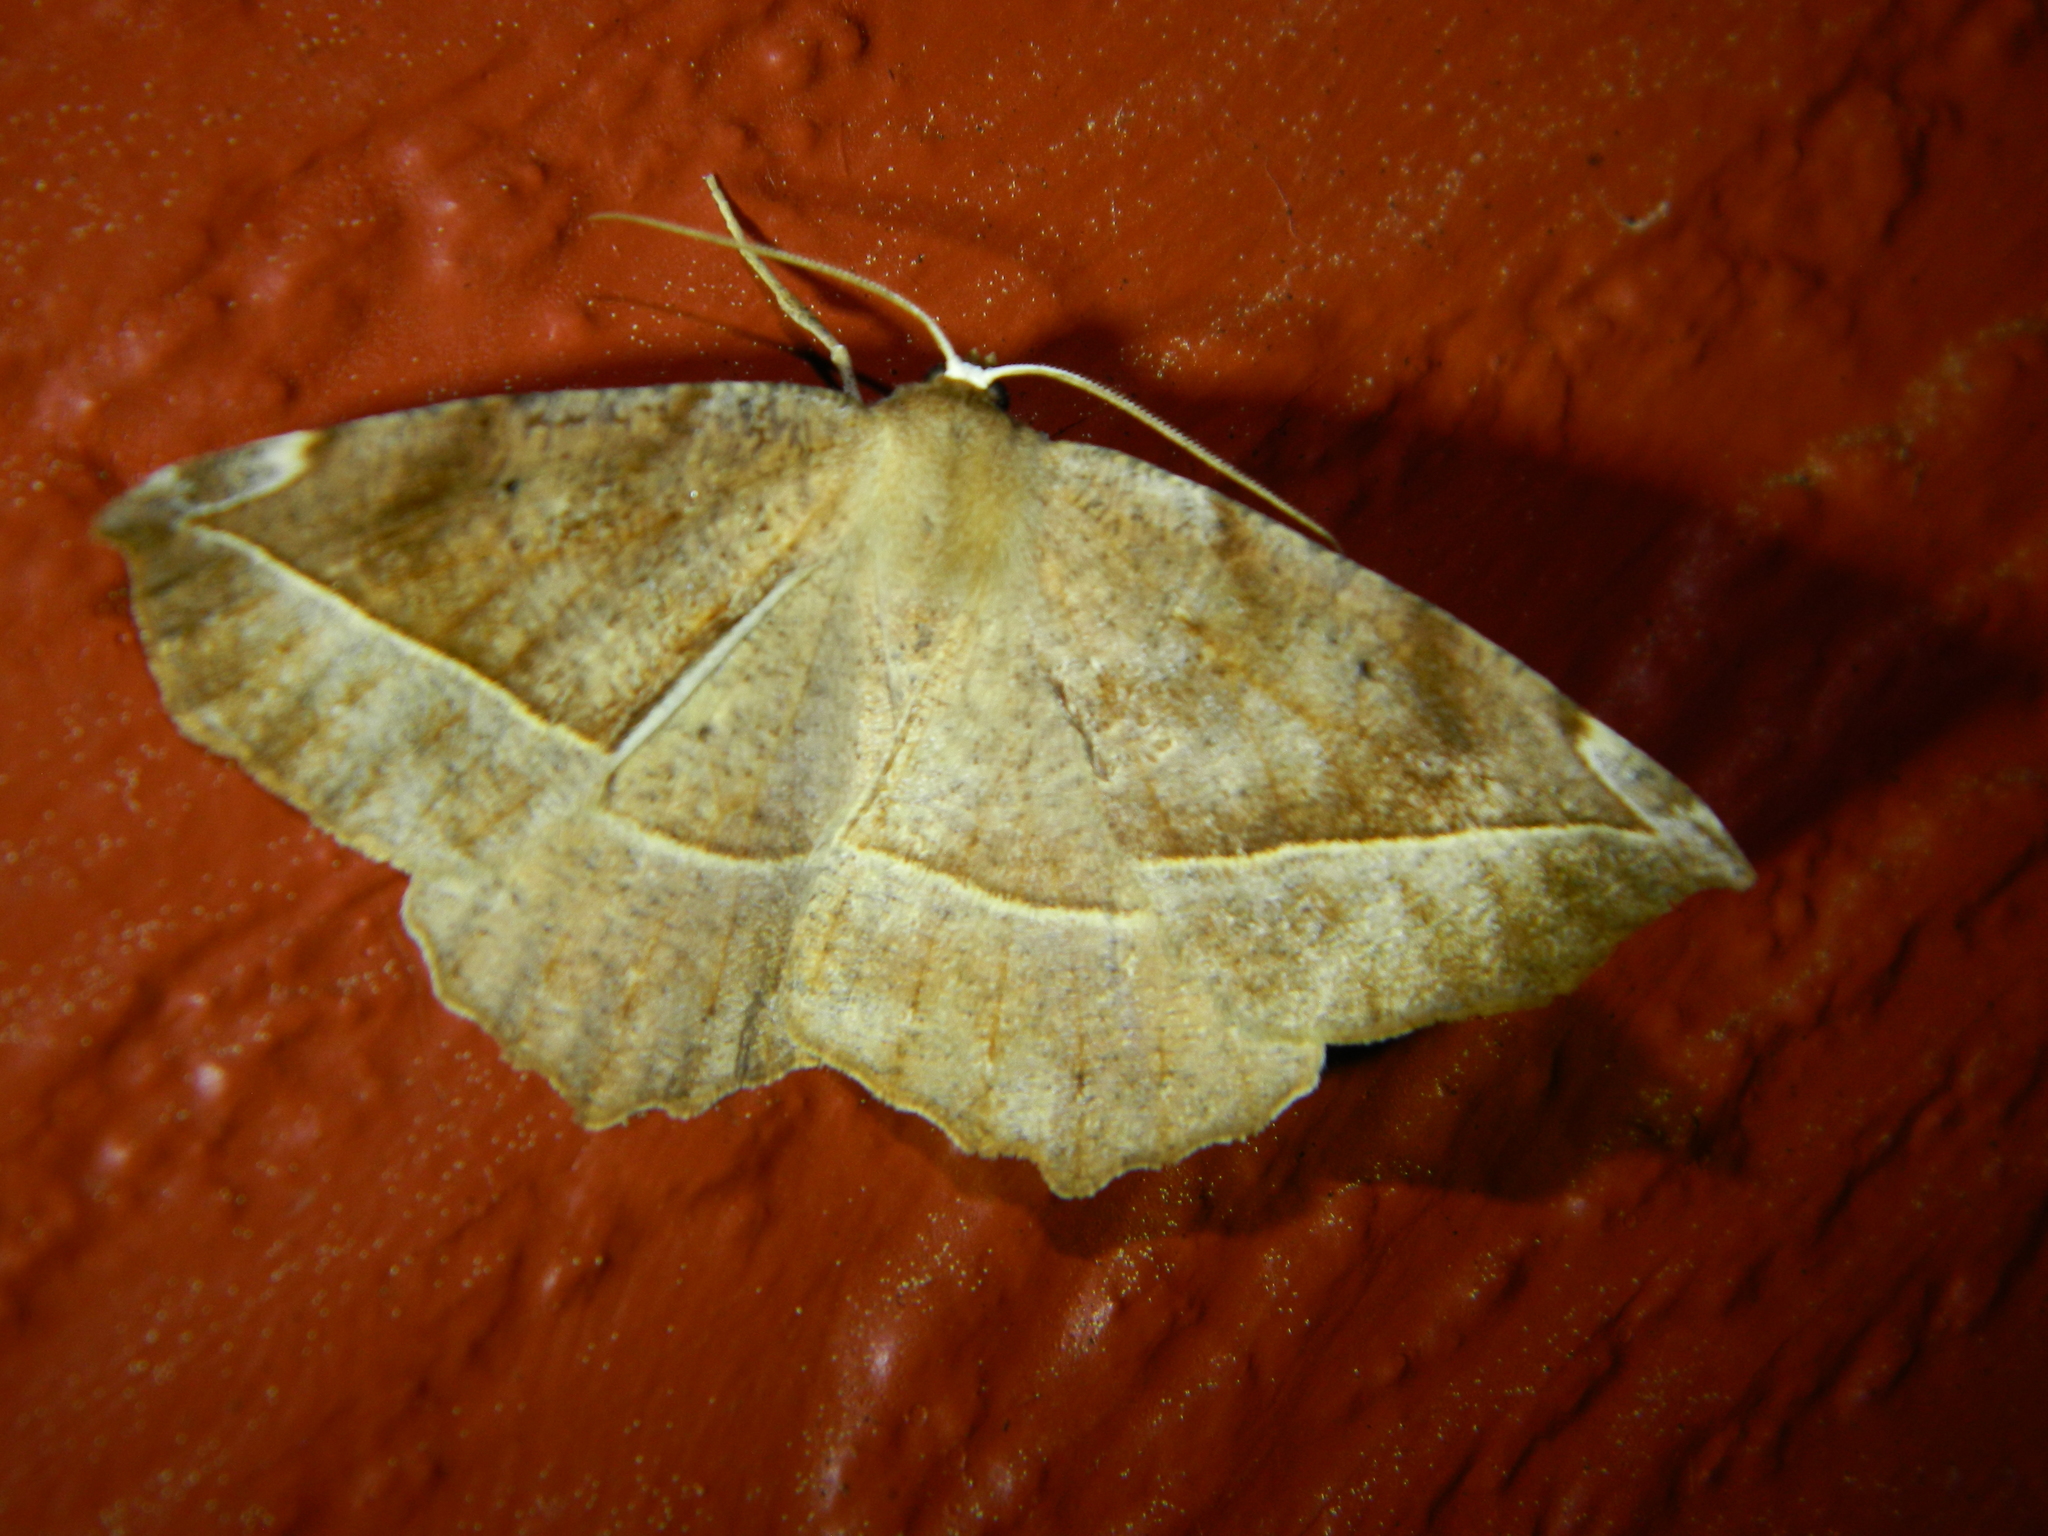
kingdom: Animalia
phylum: Arthropoda
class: Insecta
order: Lepidoptera
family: Geometridae
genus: Eutrapela
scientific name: Eutrapela clemataria
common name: Curved-toothed geometer
